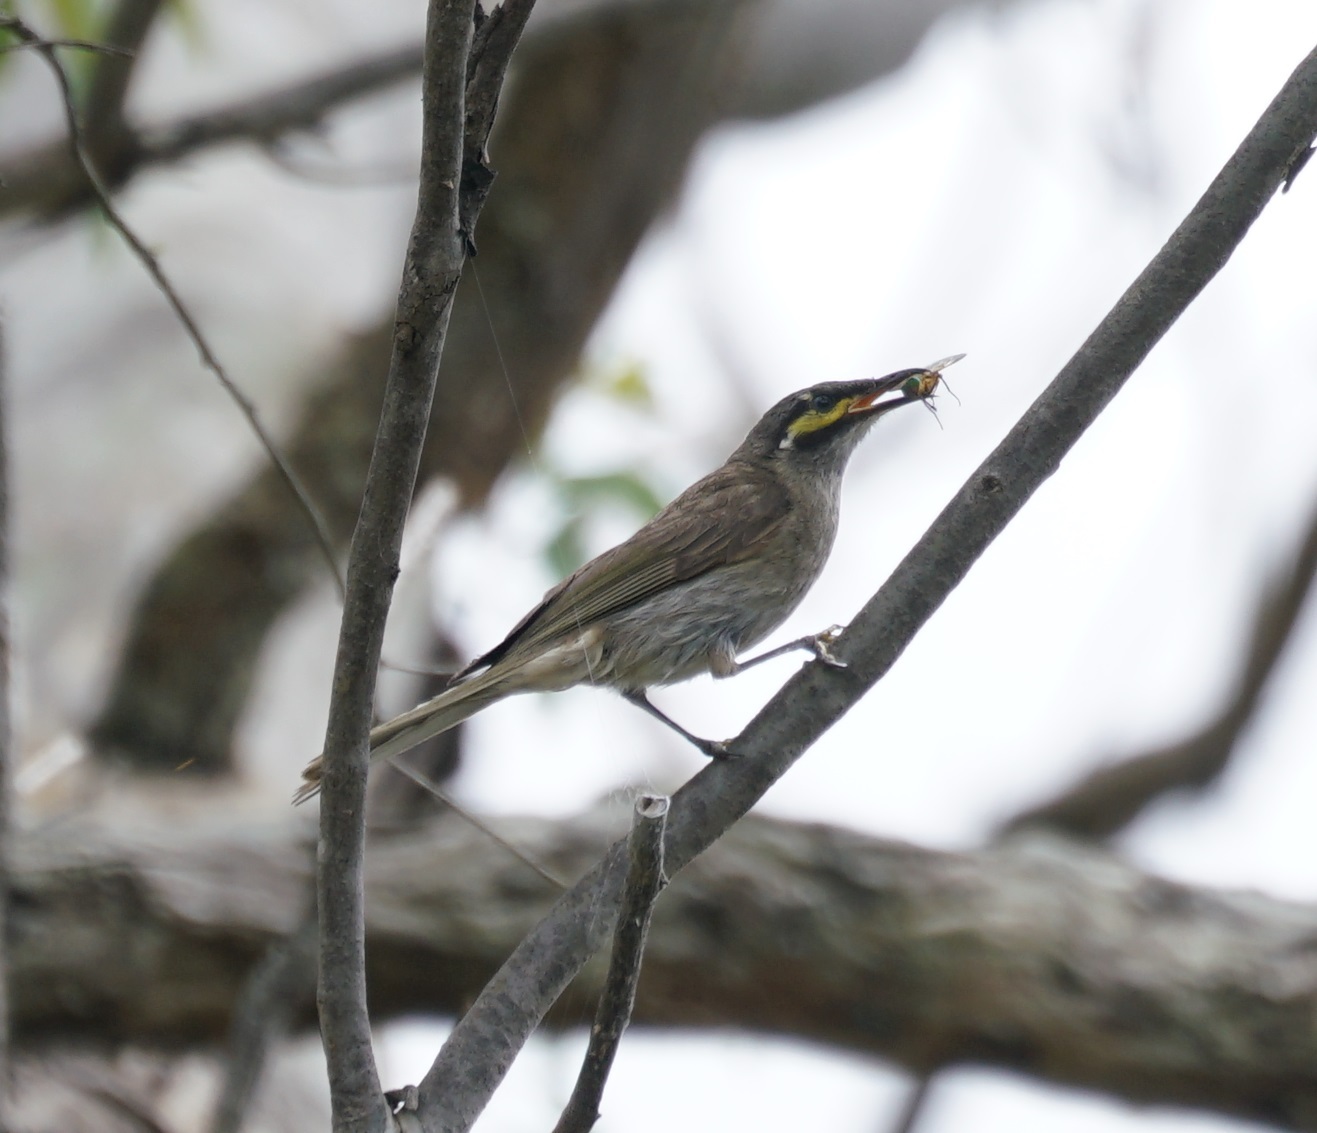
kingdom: Animalia
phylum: Chordata
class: Aves
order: Passeriformes
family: Meliphagidae
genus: Caligavis
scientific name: Caligavis chrysops
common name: Yellow-faced honeyeater
